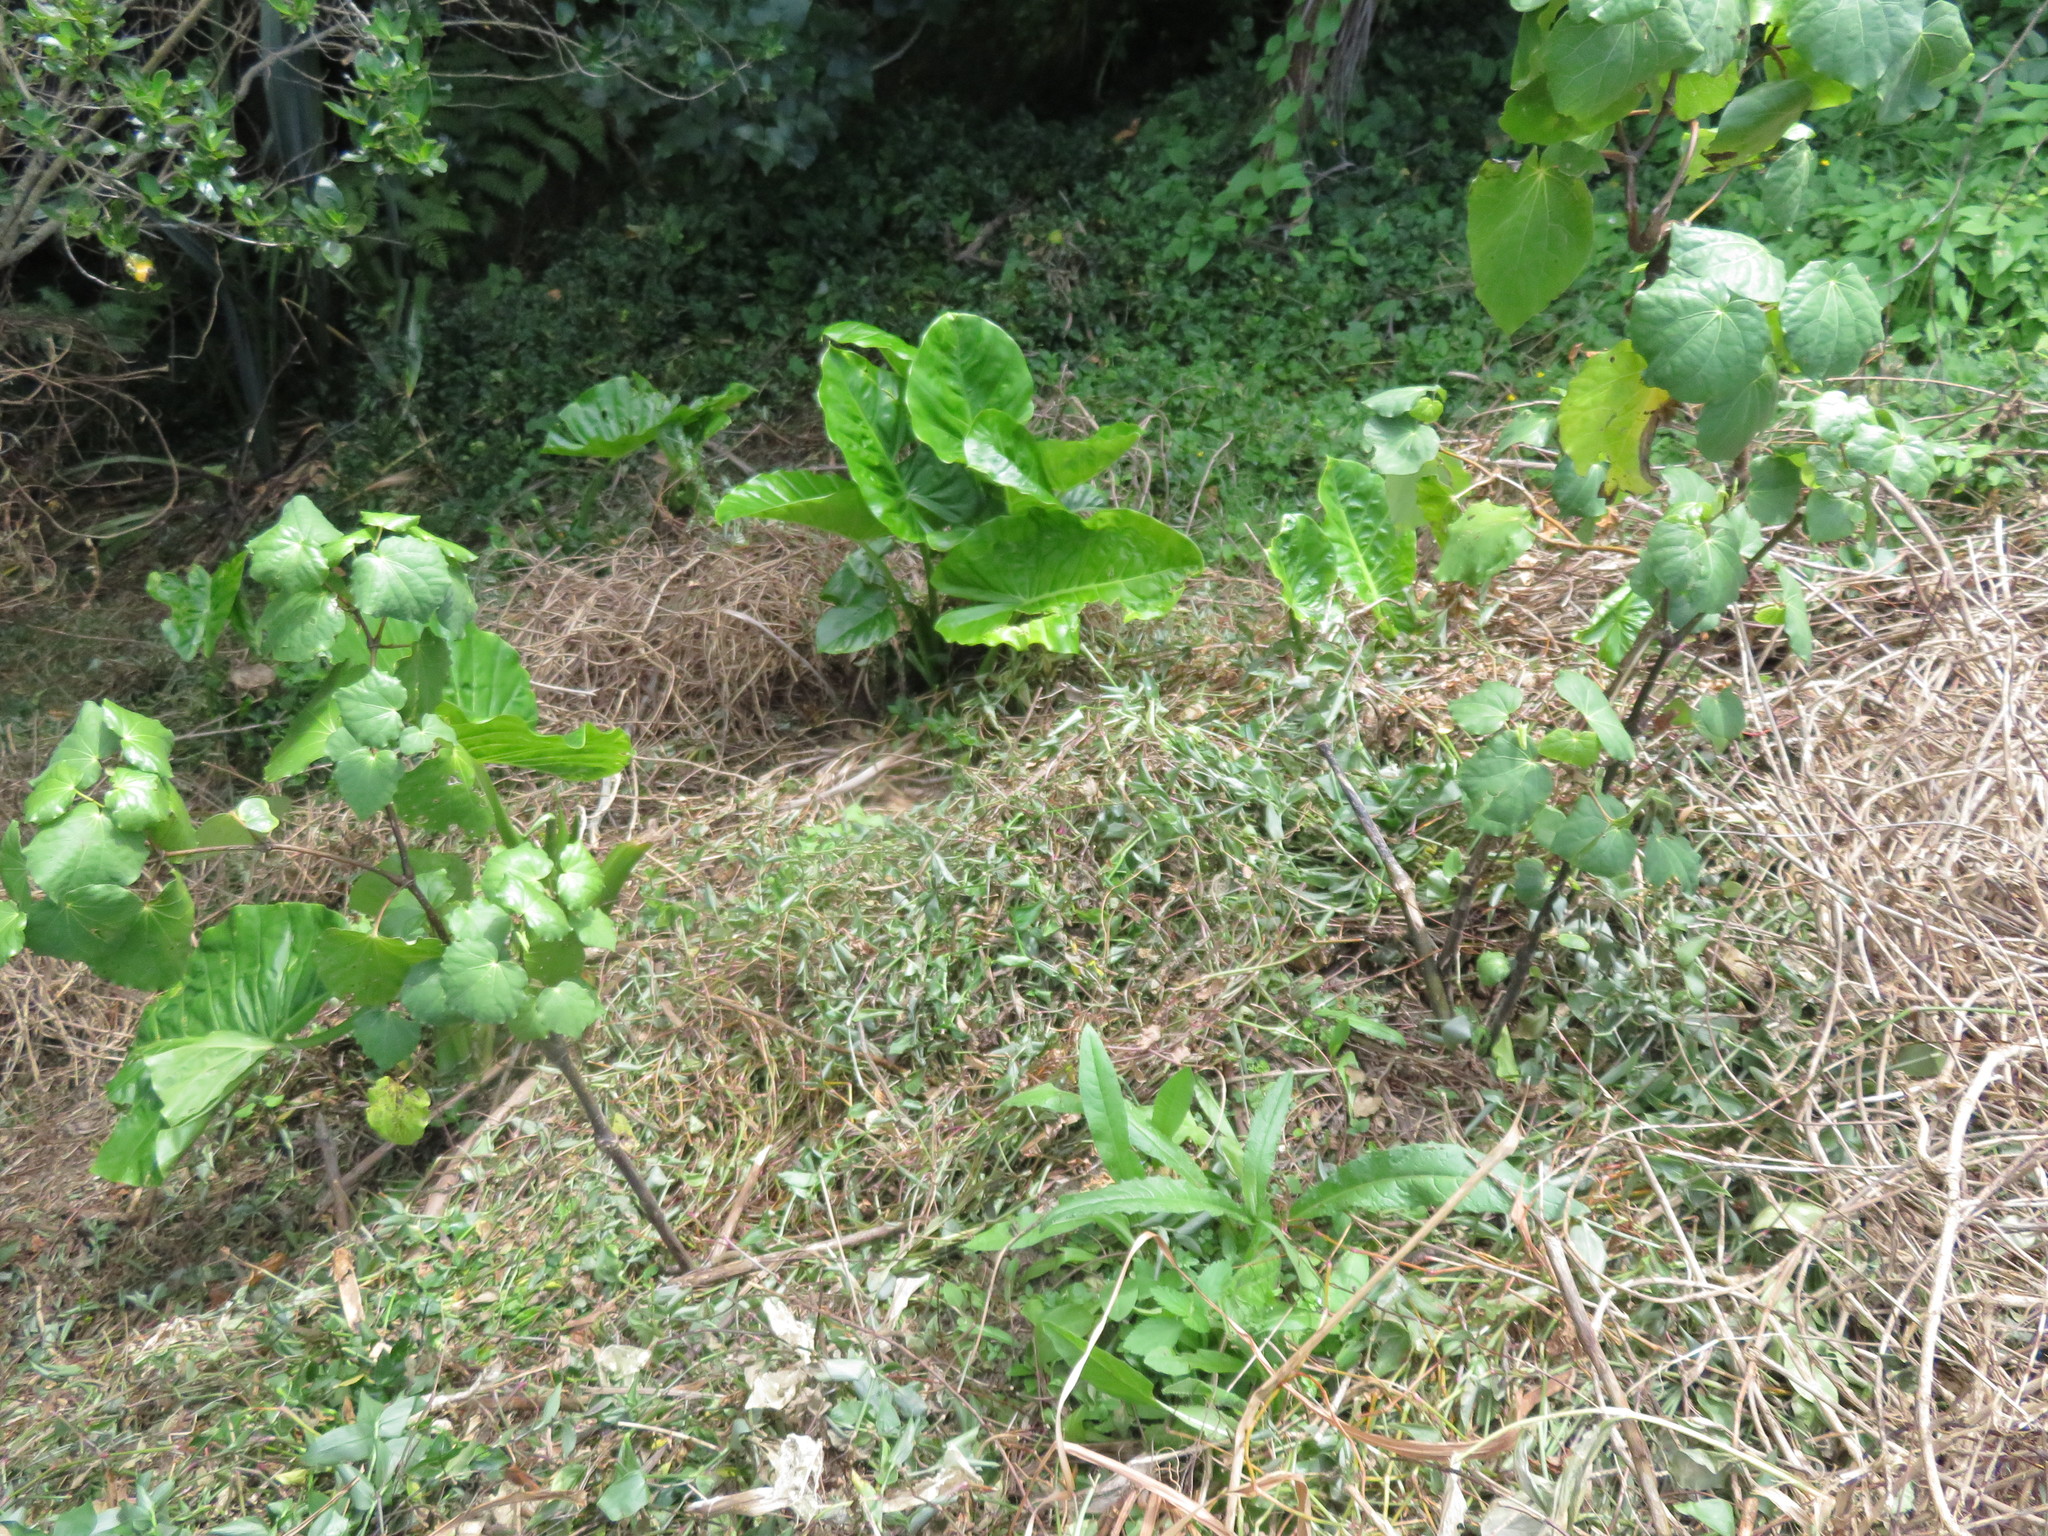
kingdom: Plantae
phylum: Tracheophyta
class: Magnoliopsida
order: Piperales
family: Piperaceae
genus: Macropiper
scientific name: Macropiper excelsum
